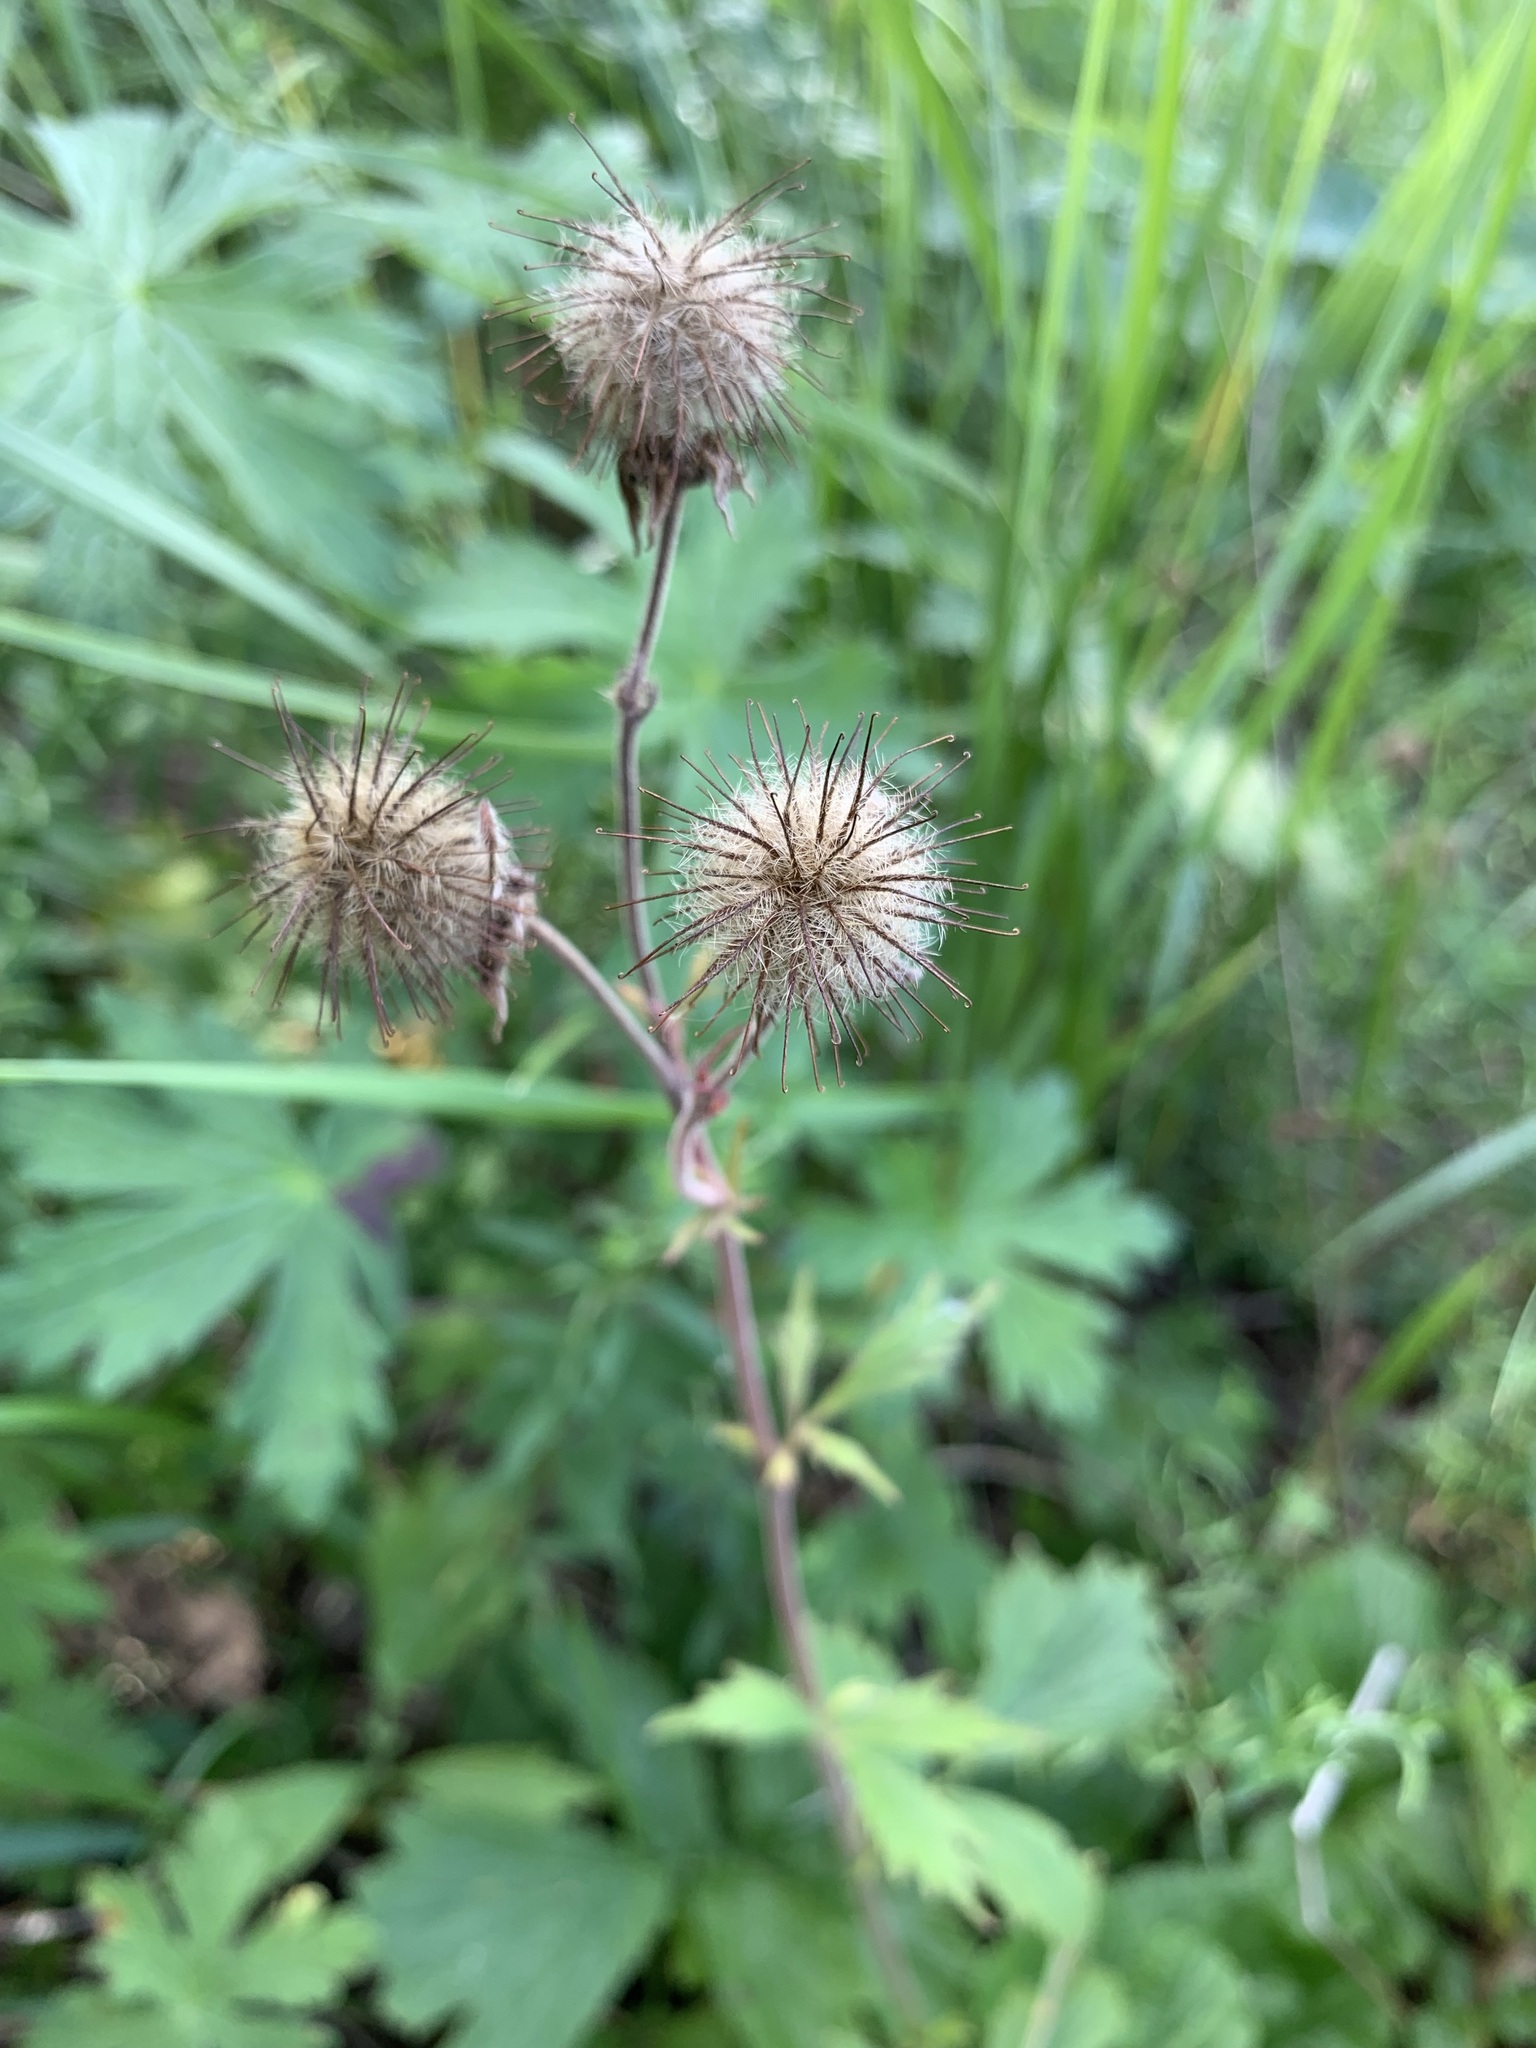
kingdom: Plantae
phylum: Tracheophyta
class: Magnoliopsida
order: Rosales
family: Rosaceae
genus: Geum
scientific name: Geum rivale
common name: Water avens
